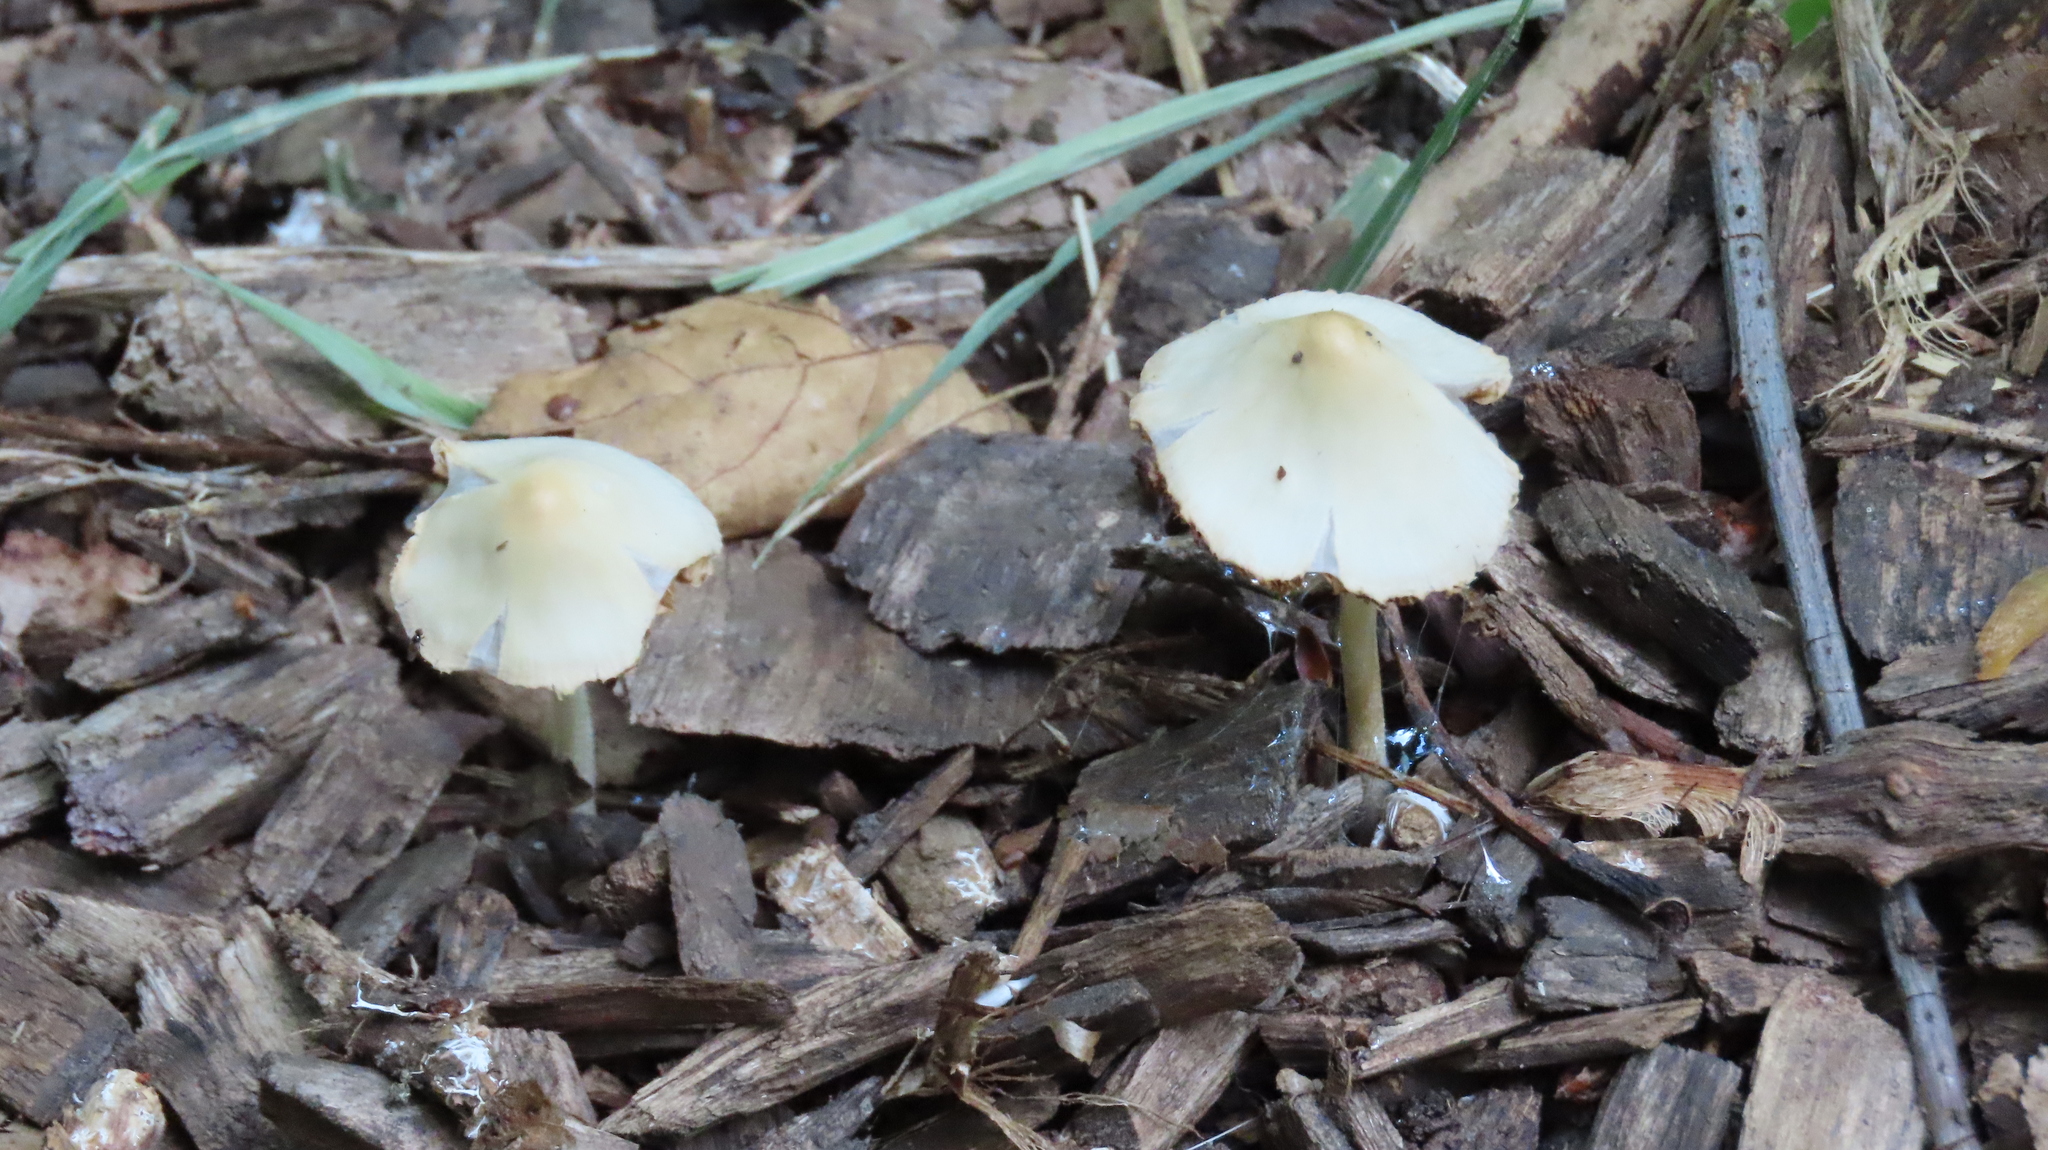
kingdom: Fungi
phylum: Basidiomycota
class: Agaricomycetes
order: Agaricales
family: Bolbitiaceae
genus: Conocybe
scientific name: Conocybe apala
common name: Milky conecap
